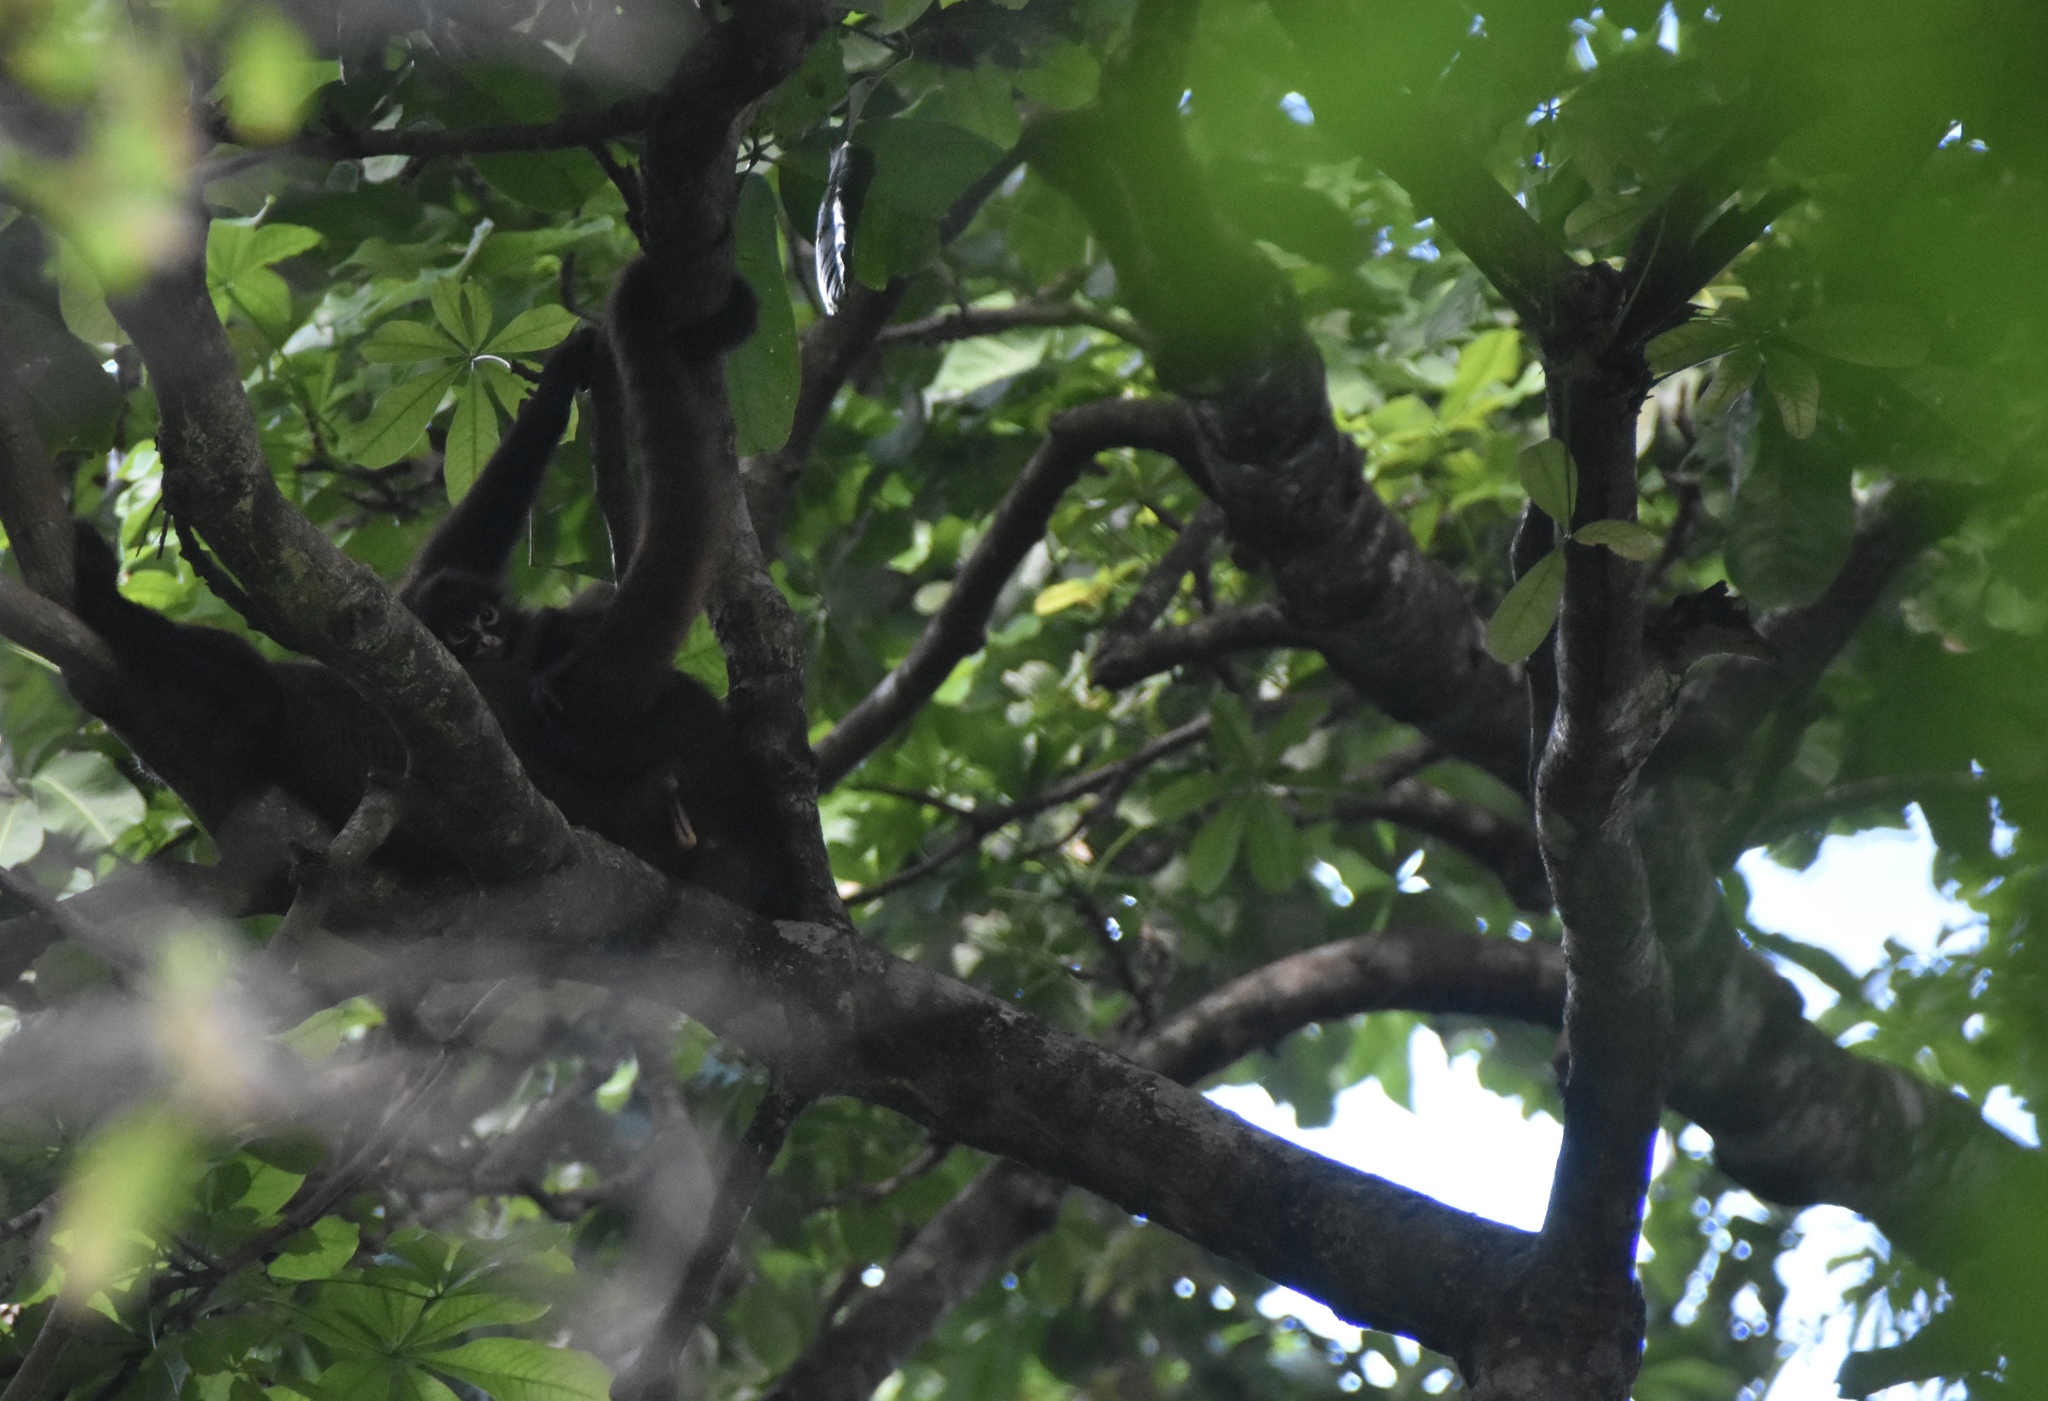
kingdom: Animalia
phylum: Chordata
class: Mammalia
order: Primates
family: Atelidae
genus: Ateles
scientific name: Ateles geoffroyi
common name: Black-handed spider monkey
